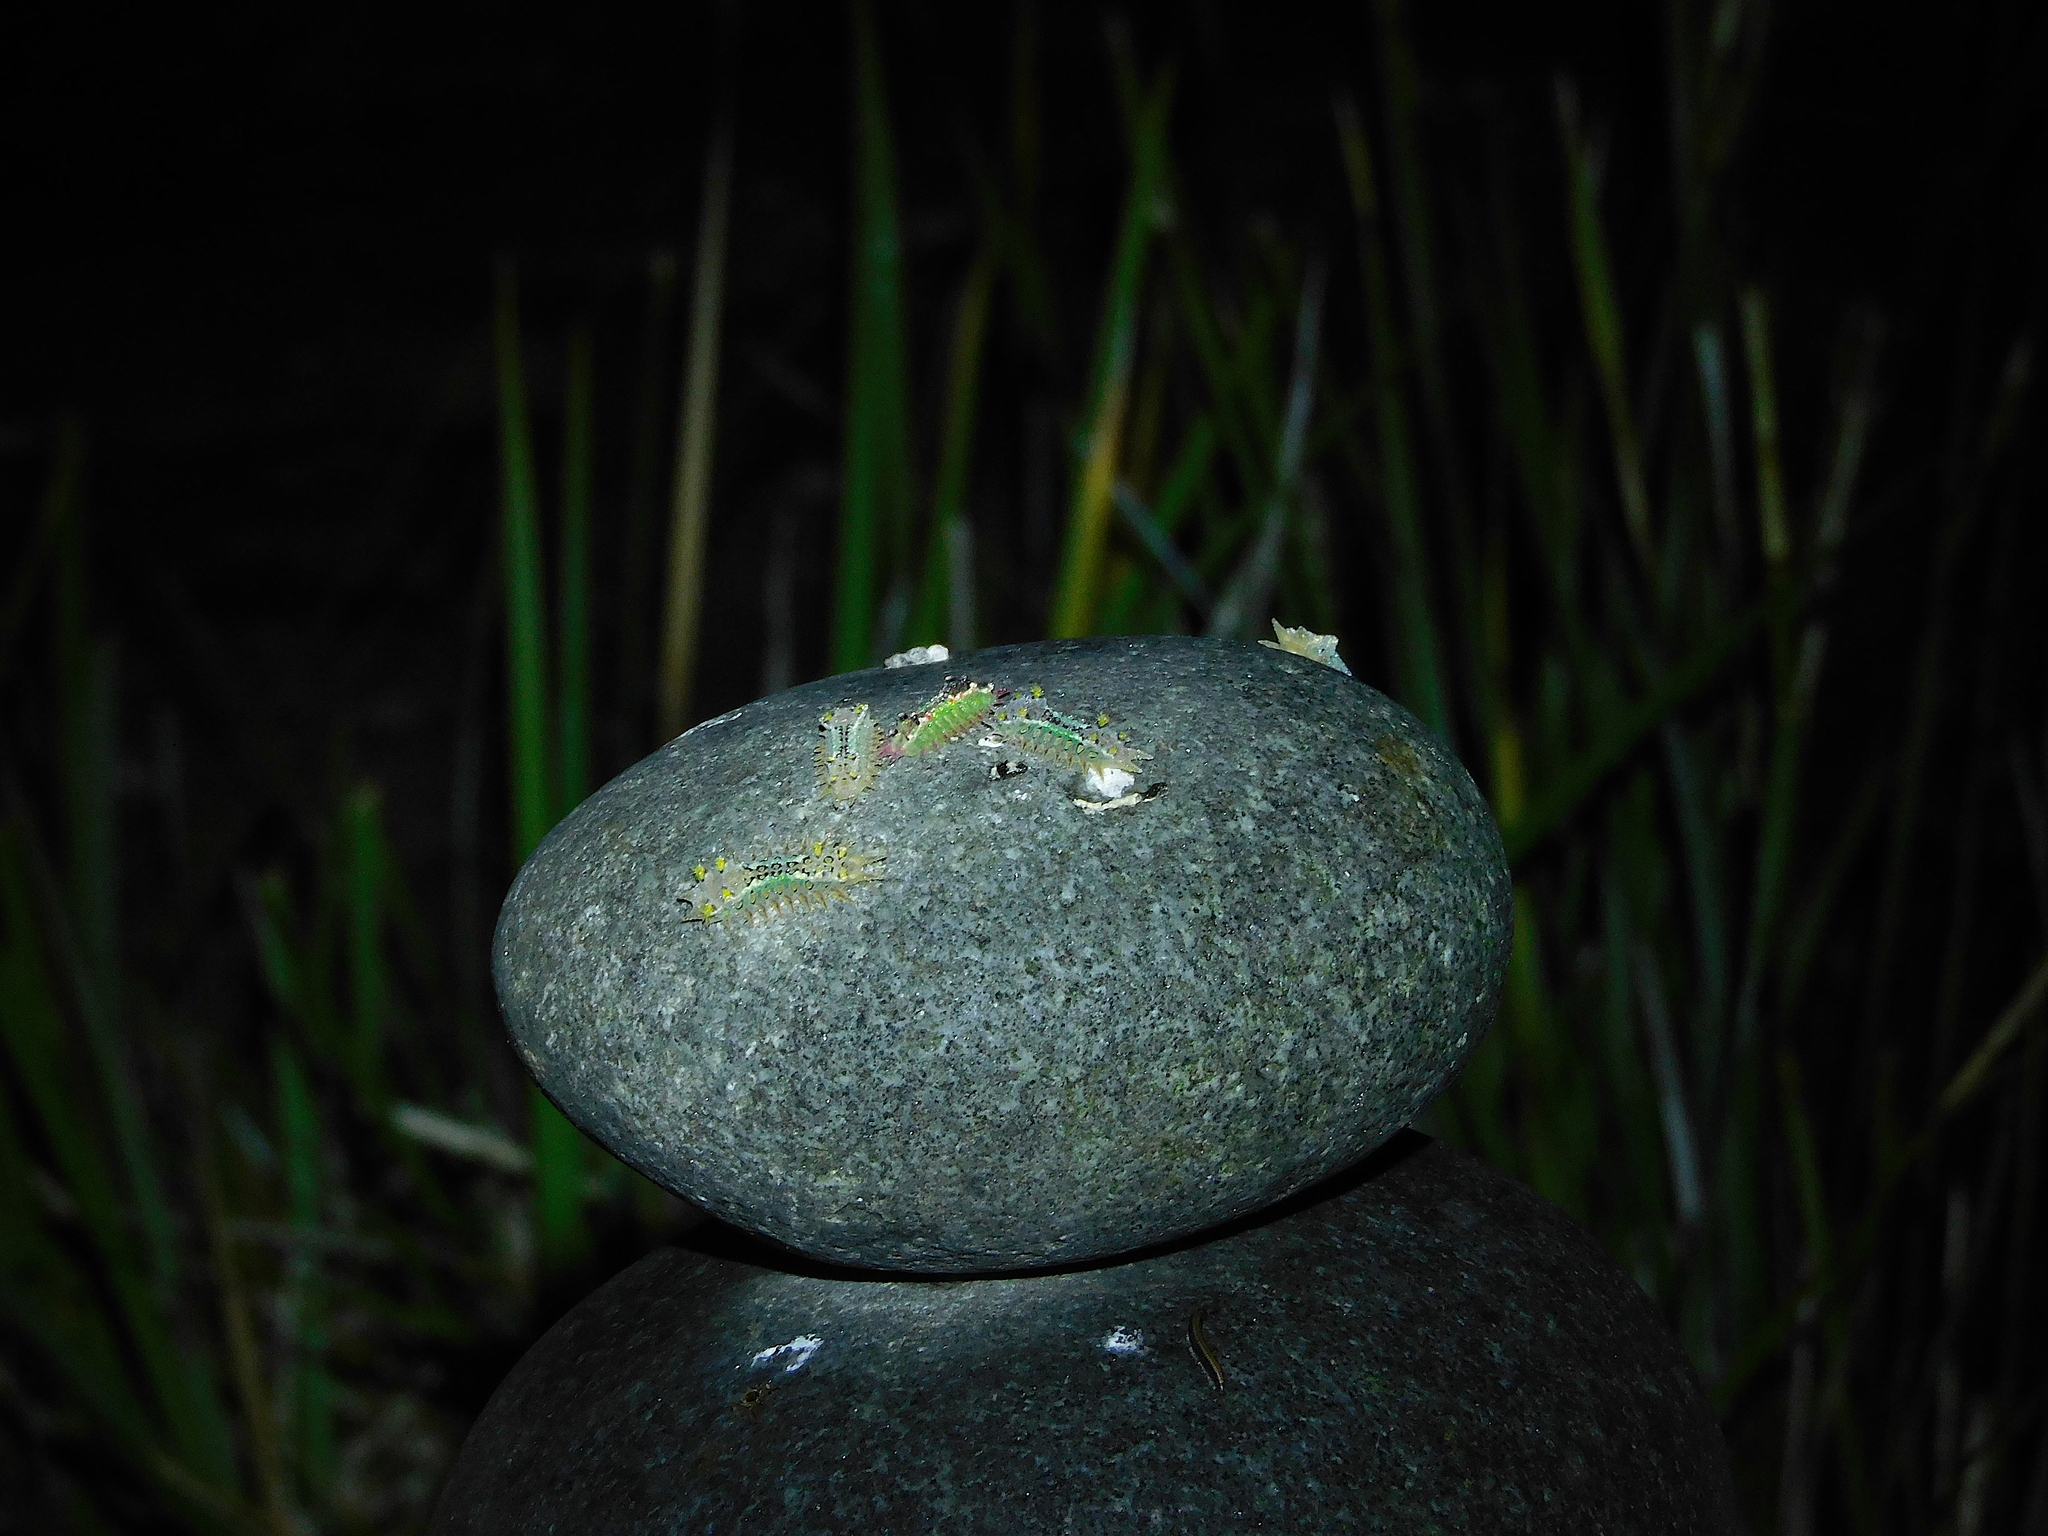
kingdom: Animalia
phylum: Arthropoda
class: Insecta
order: Lepidoptera
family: Limacodidae
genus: Doratifera
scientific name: Doratifera oxleyi
